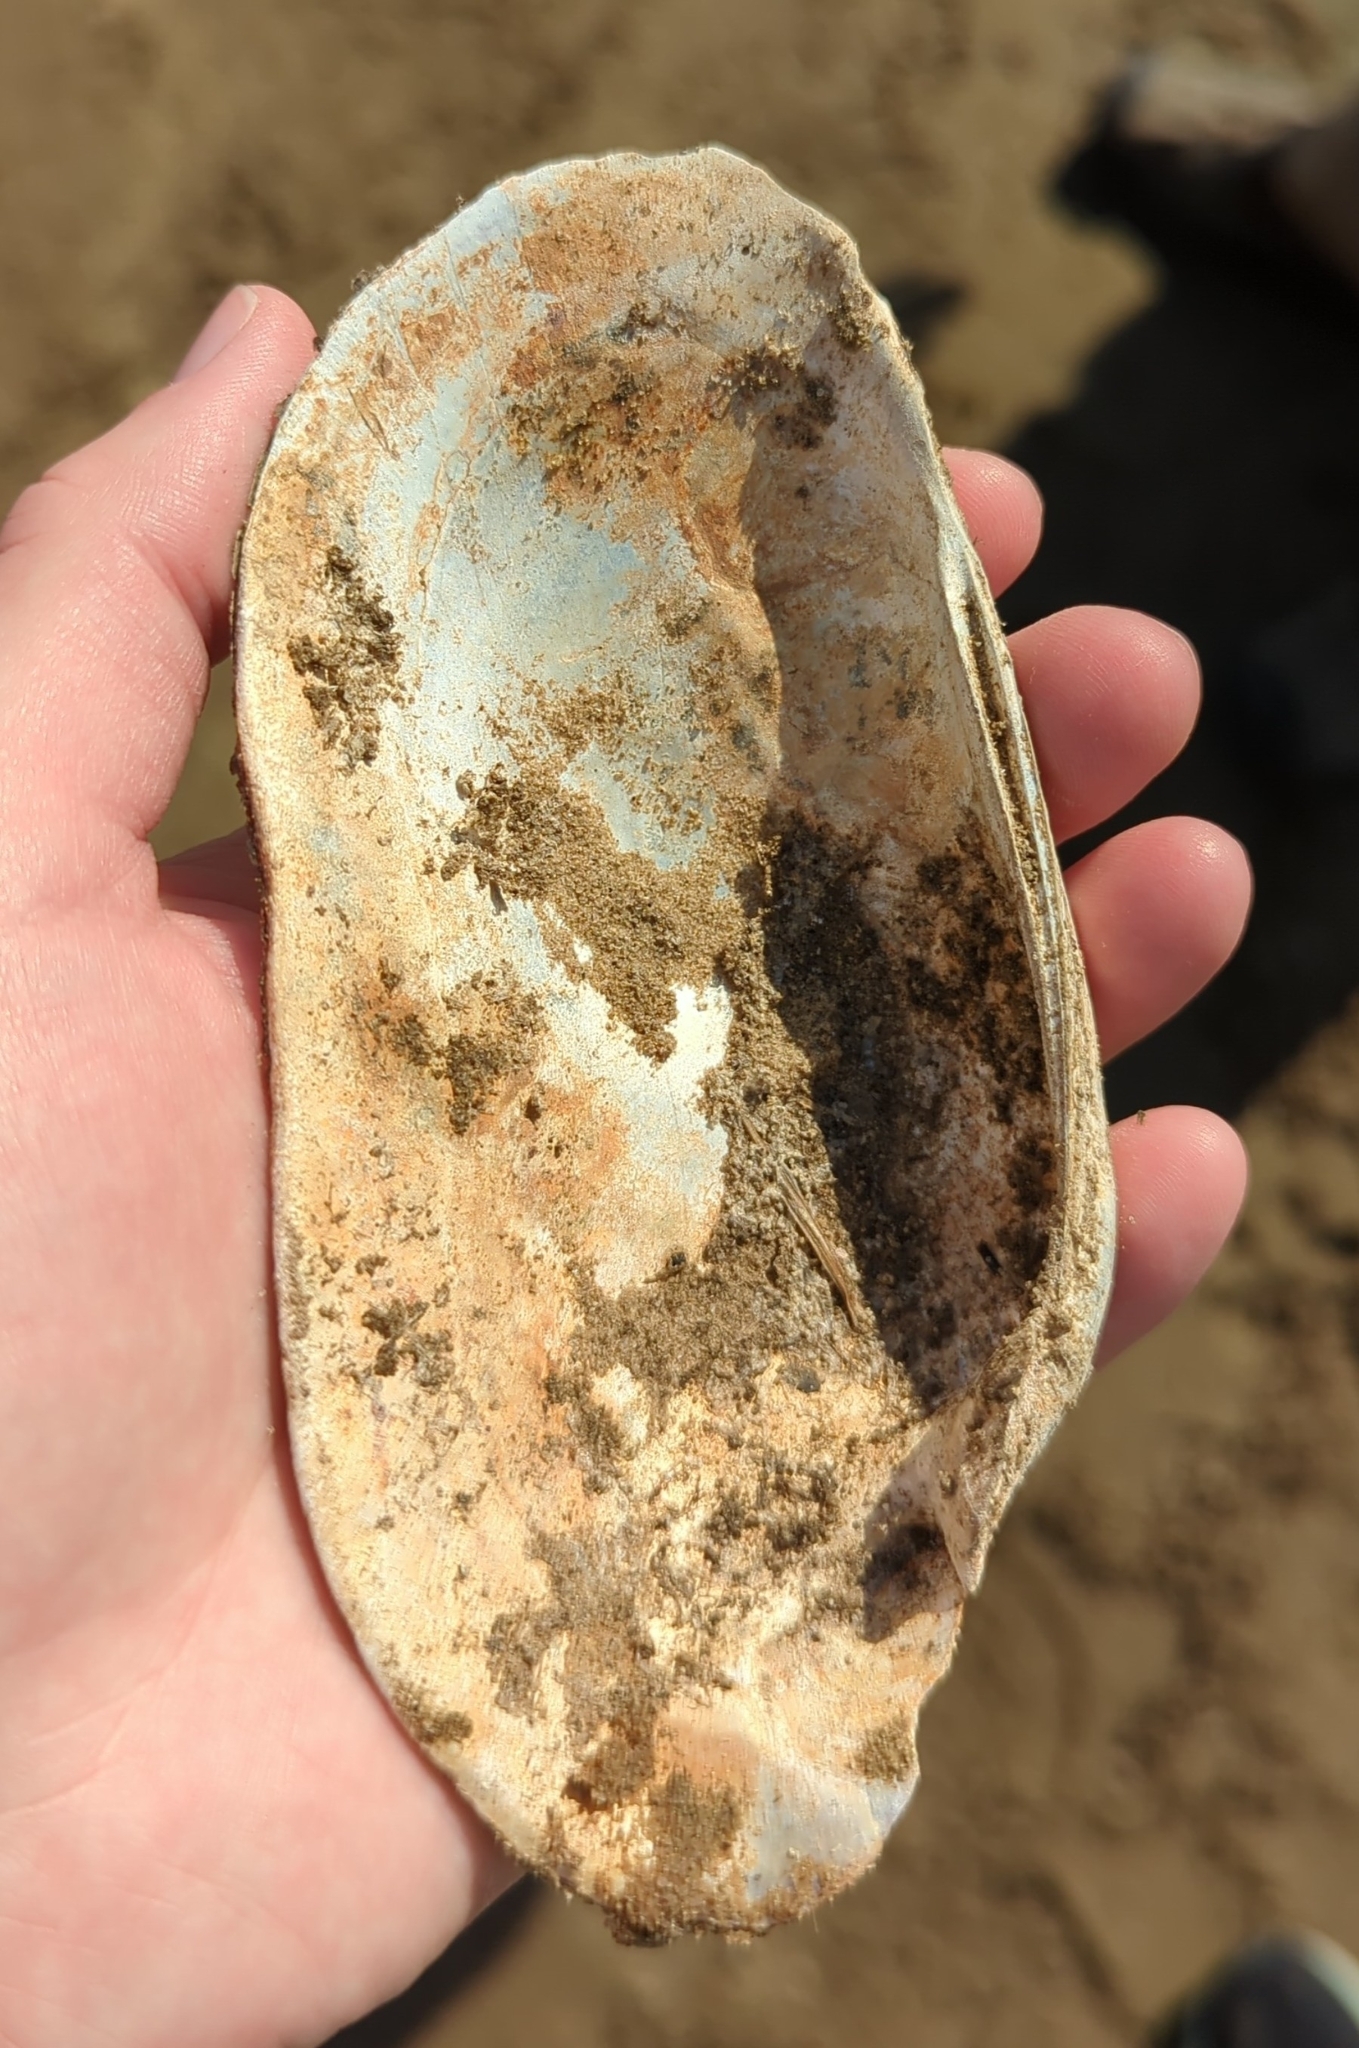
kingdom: Animalia
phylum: Mollusca
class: Bivalvia
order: Unionida
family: Unionidae
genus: Lampsilis
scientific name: Lampsilis teres
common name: Yellow sandshell
